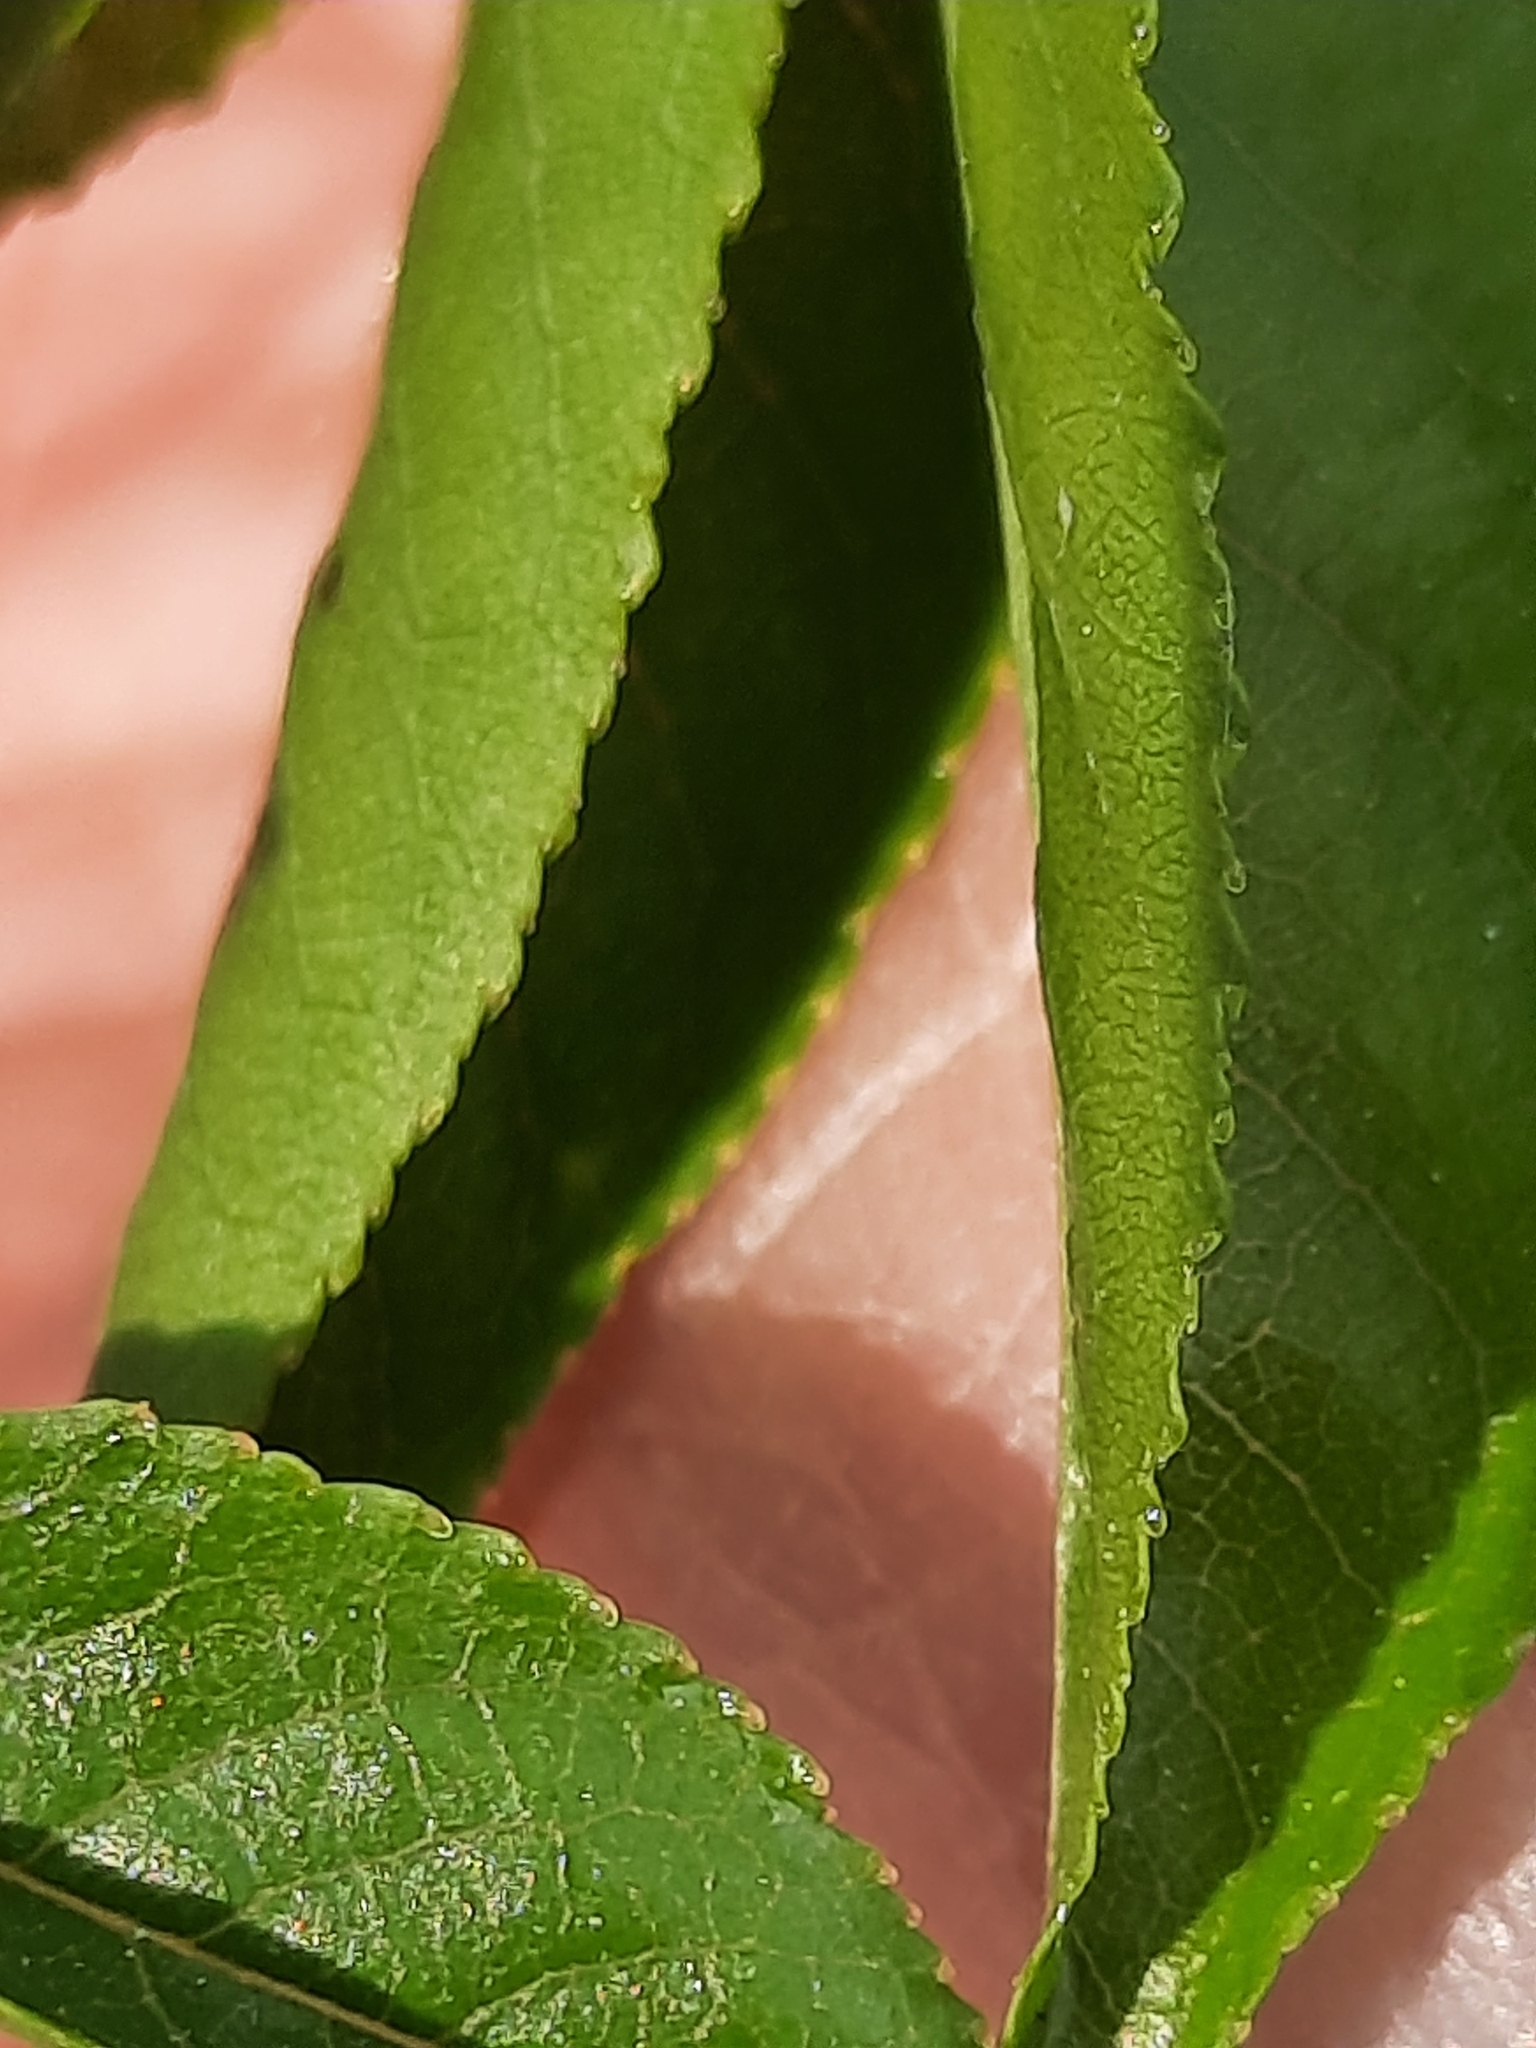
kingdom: Plantae
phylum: Tracheophyta
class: Magnoliopsida
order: Rosales
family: Rosaceae
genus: Prunus
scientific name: Prunus pensylvanica
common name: Pin cherry
